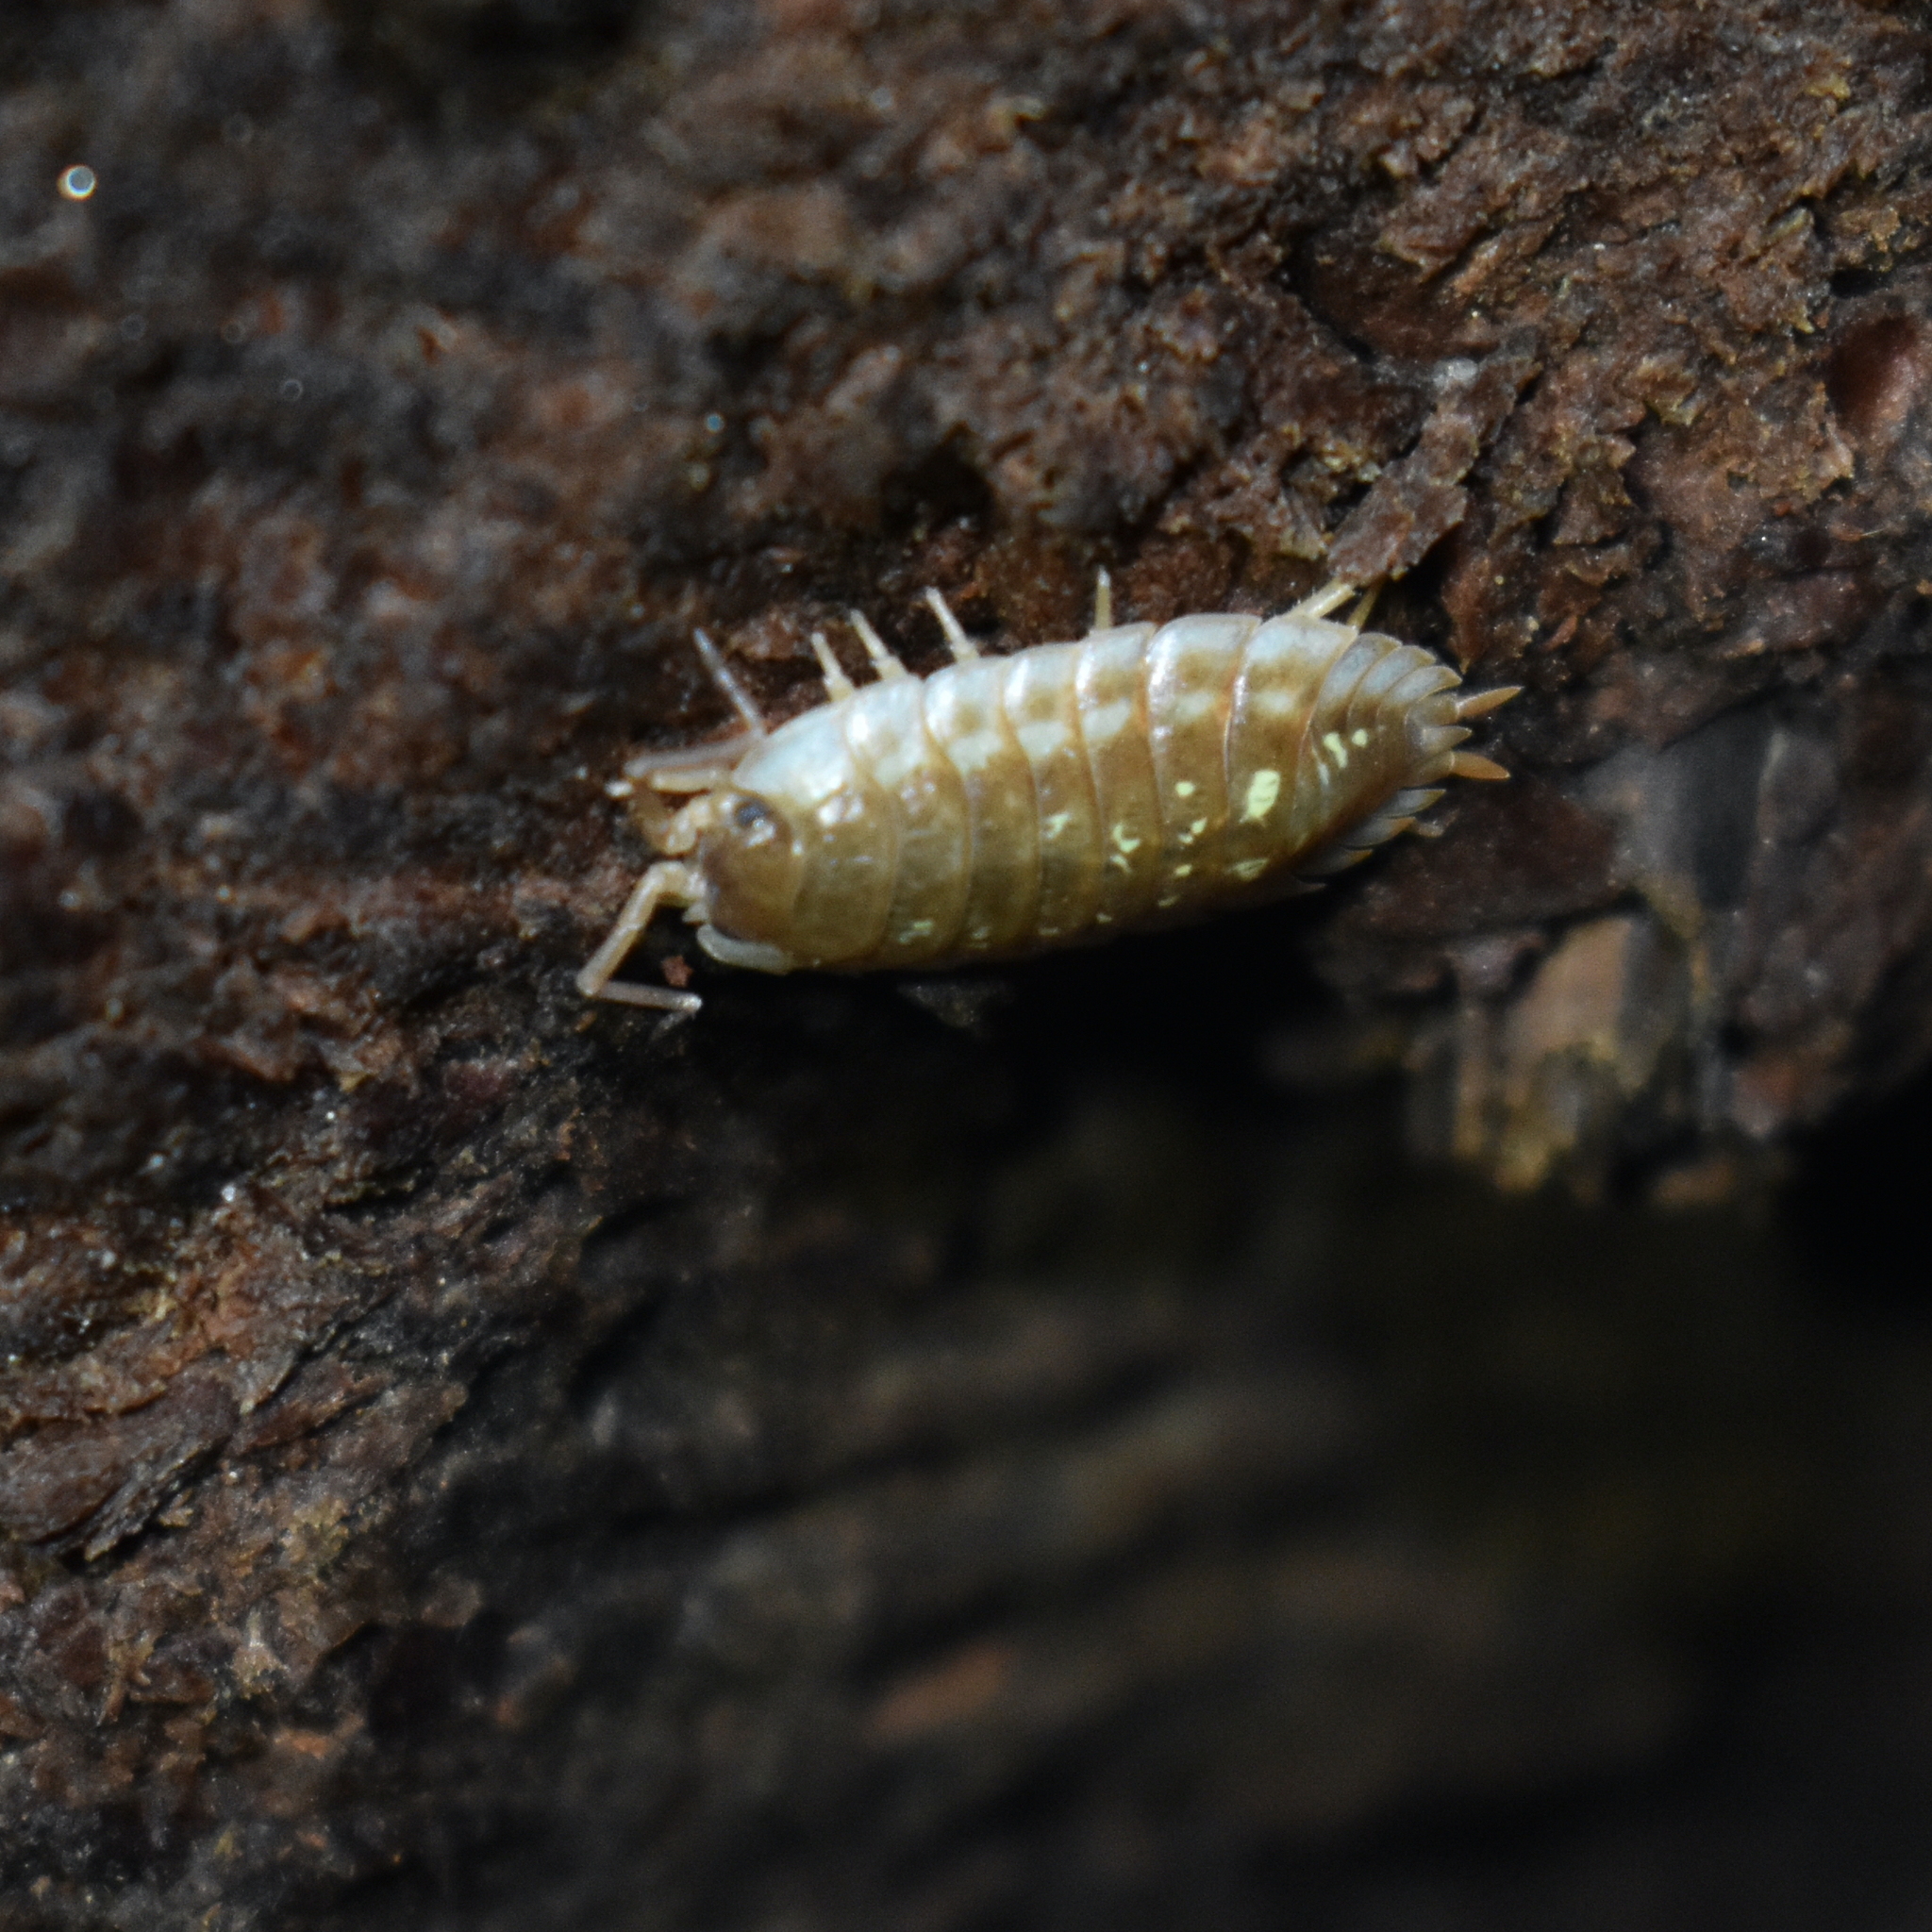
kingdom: Animalia
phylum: Arthropoda
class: Malacostraca
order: Isopoda
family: Oniscidae
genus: Oniscus
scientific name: Oniscus asellus
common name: Common shiny woodlouse
